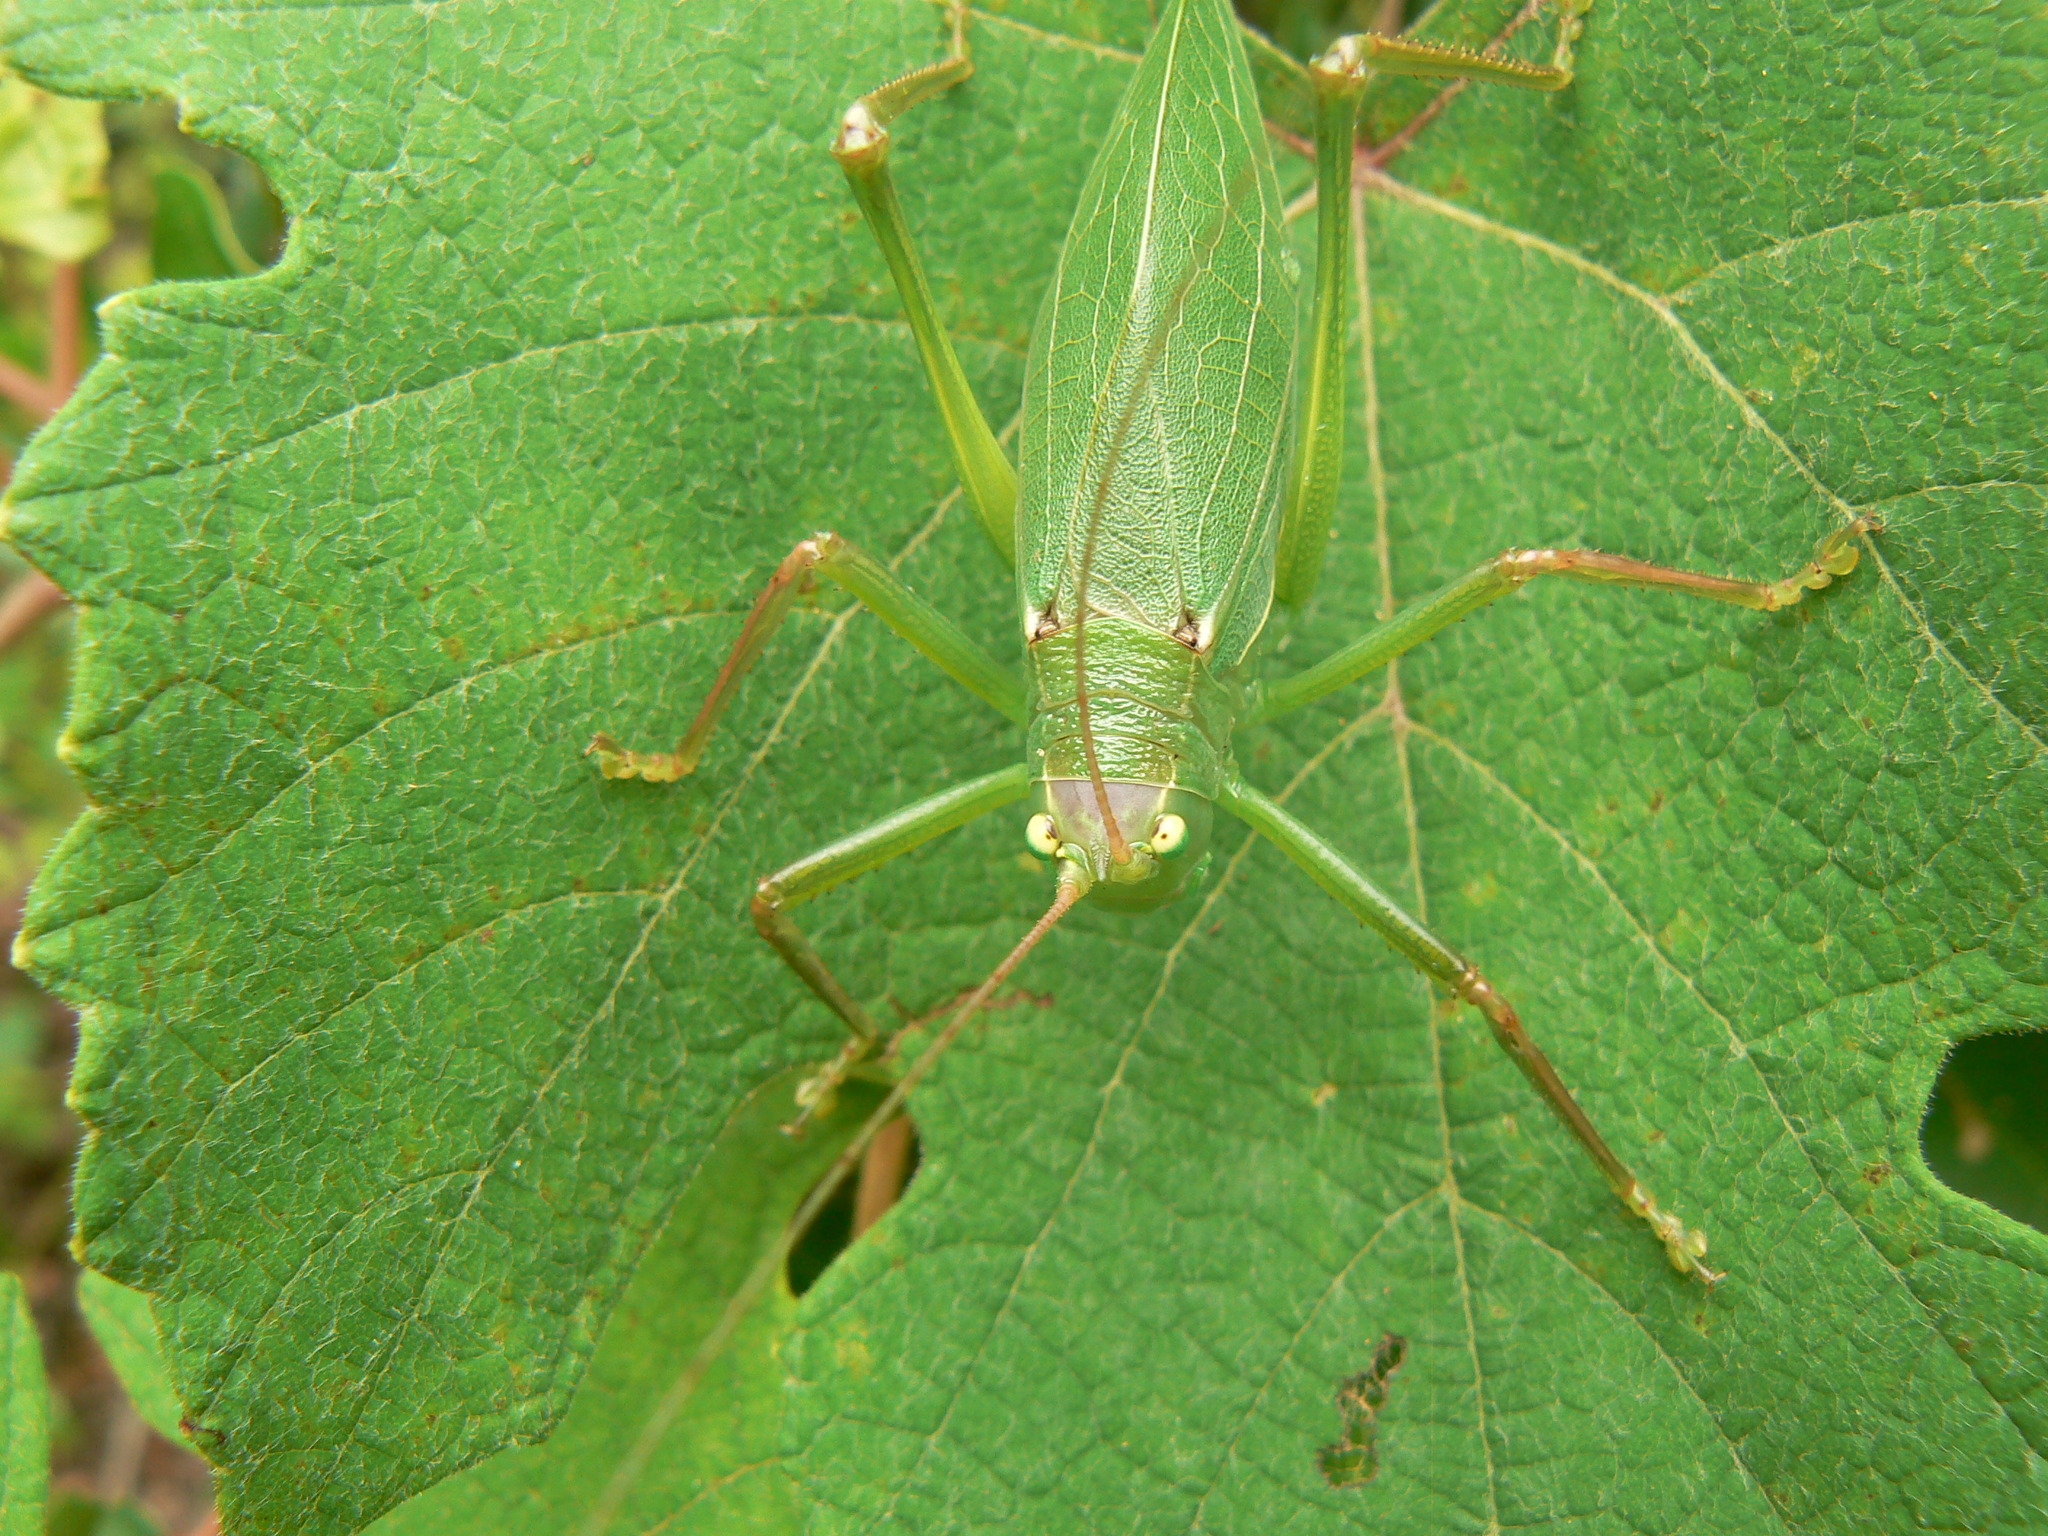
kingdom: Animalia
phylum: Arthropoda
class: Insecta
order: Orthoptera
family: Tettigoniidae
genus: Pterophylla
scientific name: Pterophylla camellifolia
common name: Common true katydid
